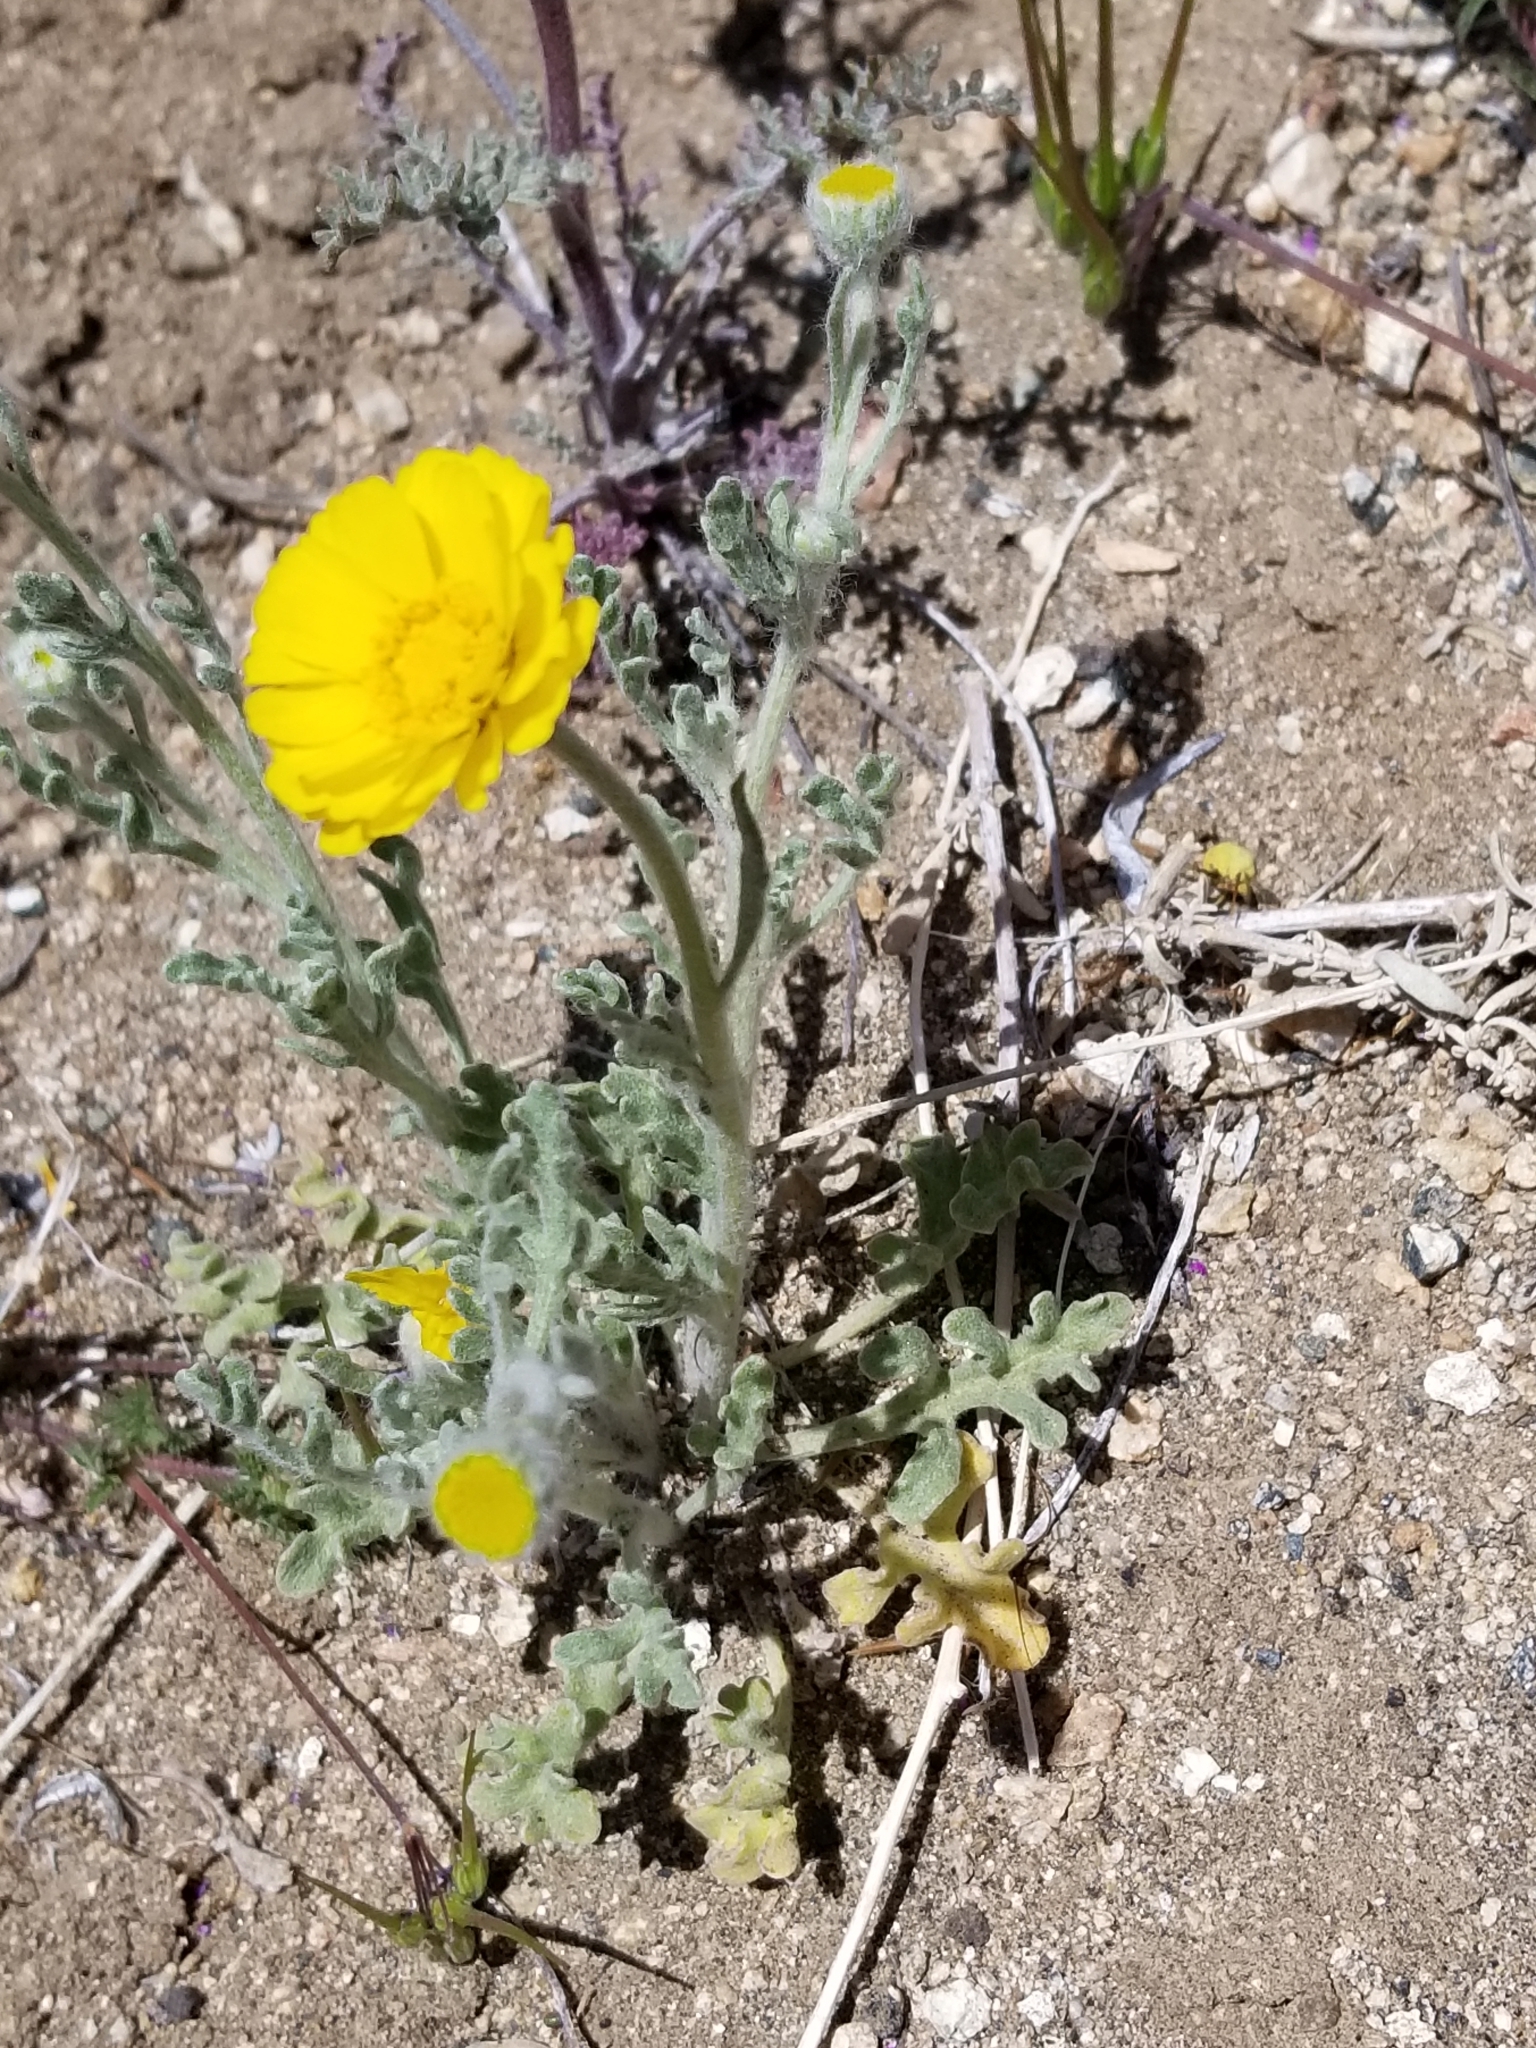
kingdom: Plantae
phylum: Tracheophyta
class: Magnoliopsida
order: Asterales
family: Asteraceae
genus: Baileya
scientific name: Baileya multiradiata
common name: Desert-marigold
